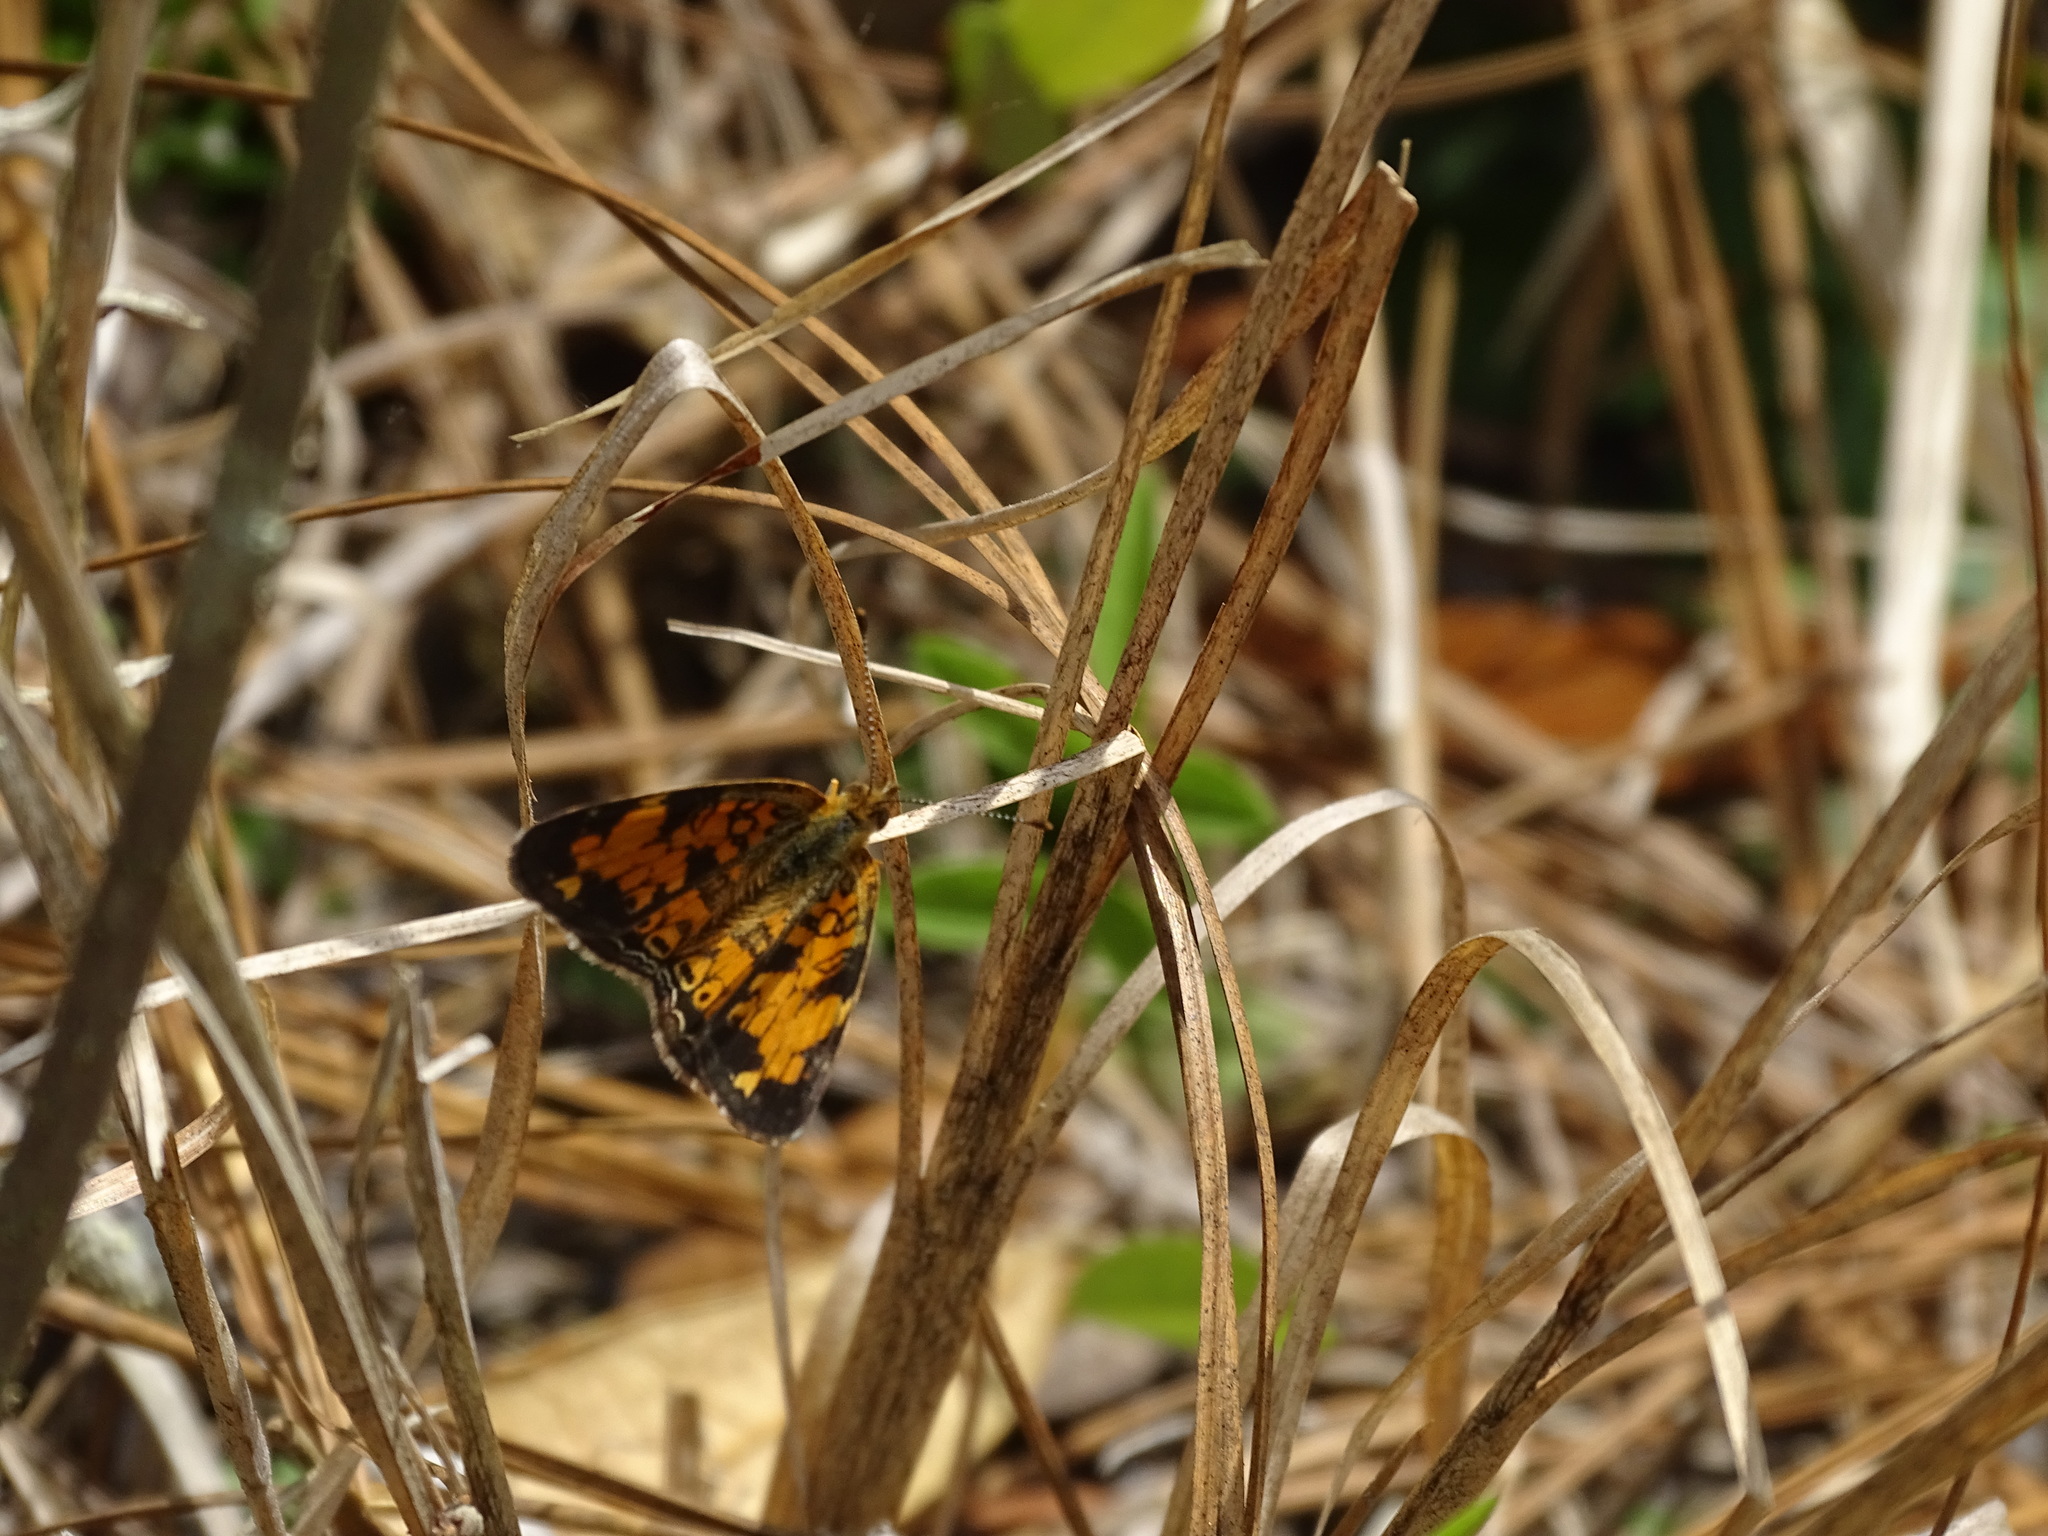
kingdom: Animalia
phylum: Arthropoda
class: Insecta
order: Lepidoptera
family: Nymphalidae
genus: Phyciodes
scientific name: Phyciodes tharos
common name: Pearl crescent
